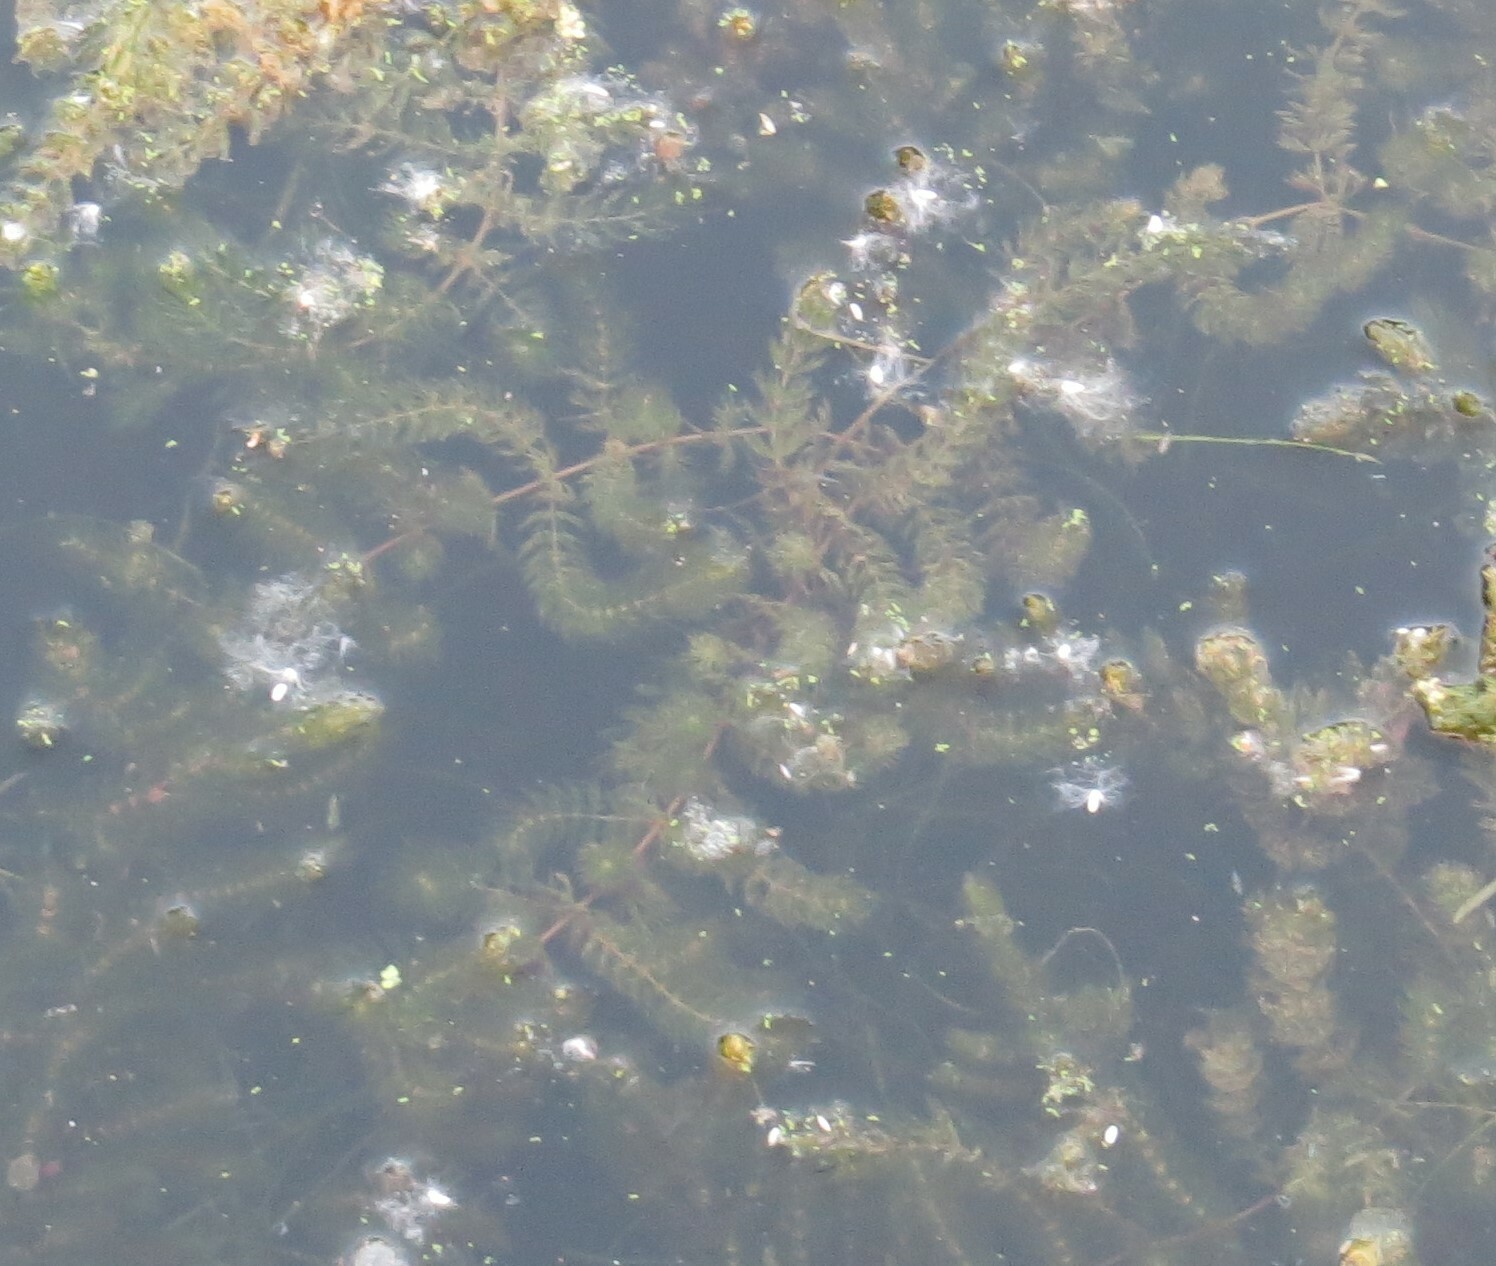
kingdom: Plantae
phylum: Tracheophyta
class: Magnoliopsida
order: Ceratophyllales
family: Ceratophyllaceae
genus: Ceratophyllum
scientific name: Ceratophyllum demersum
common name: Rigid hornwort
